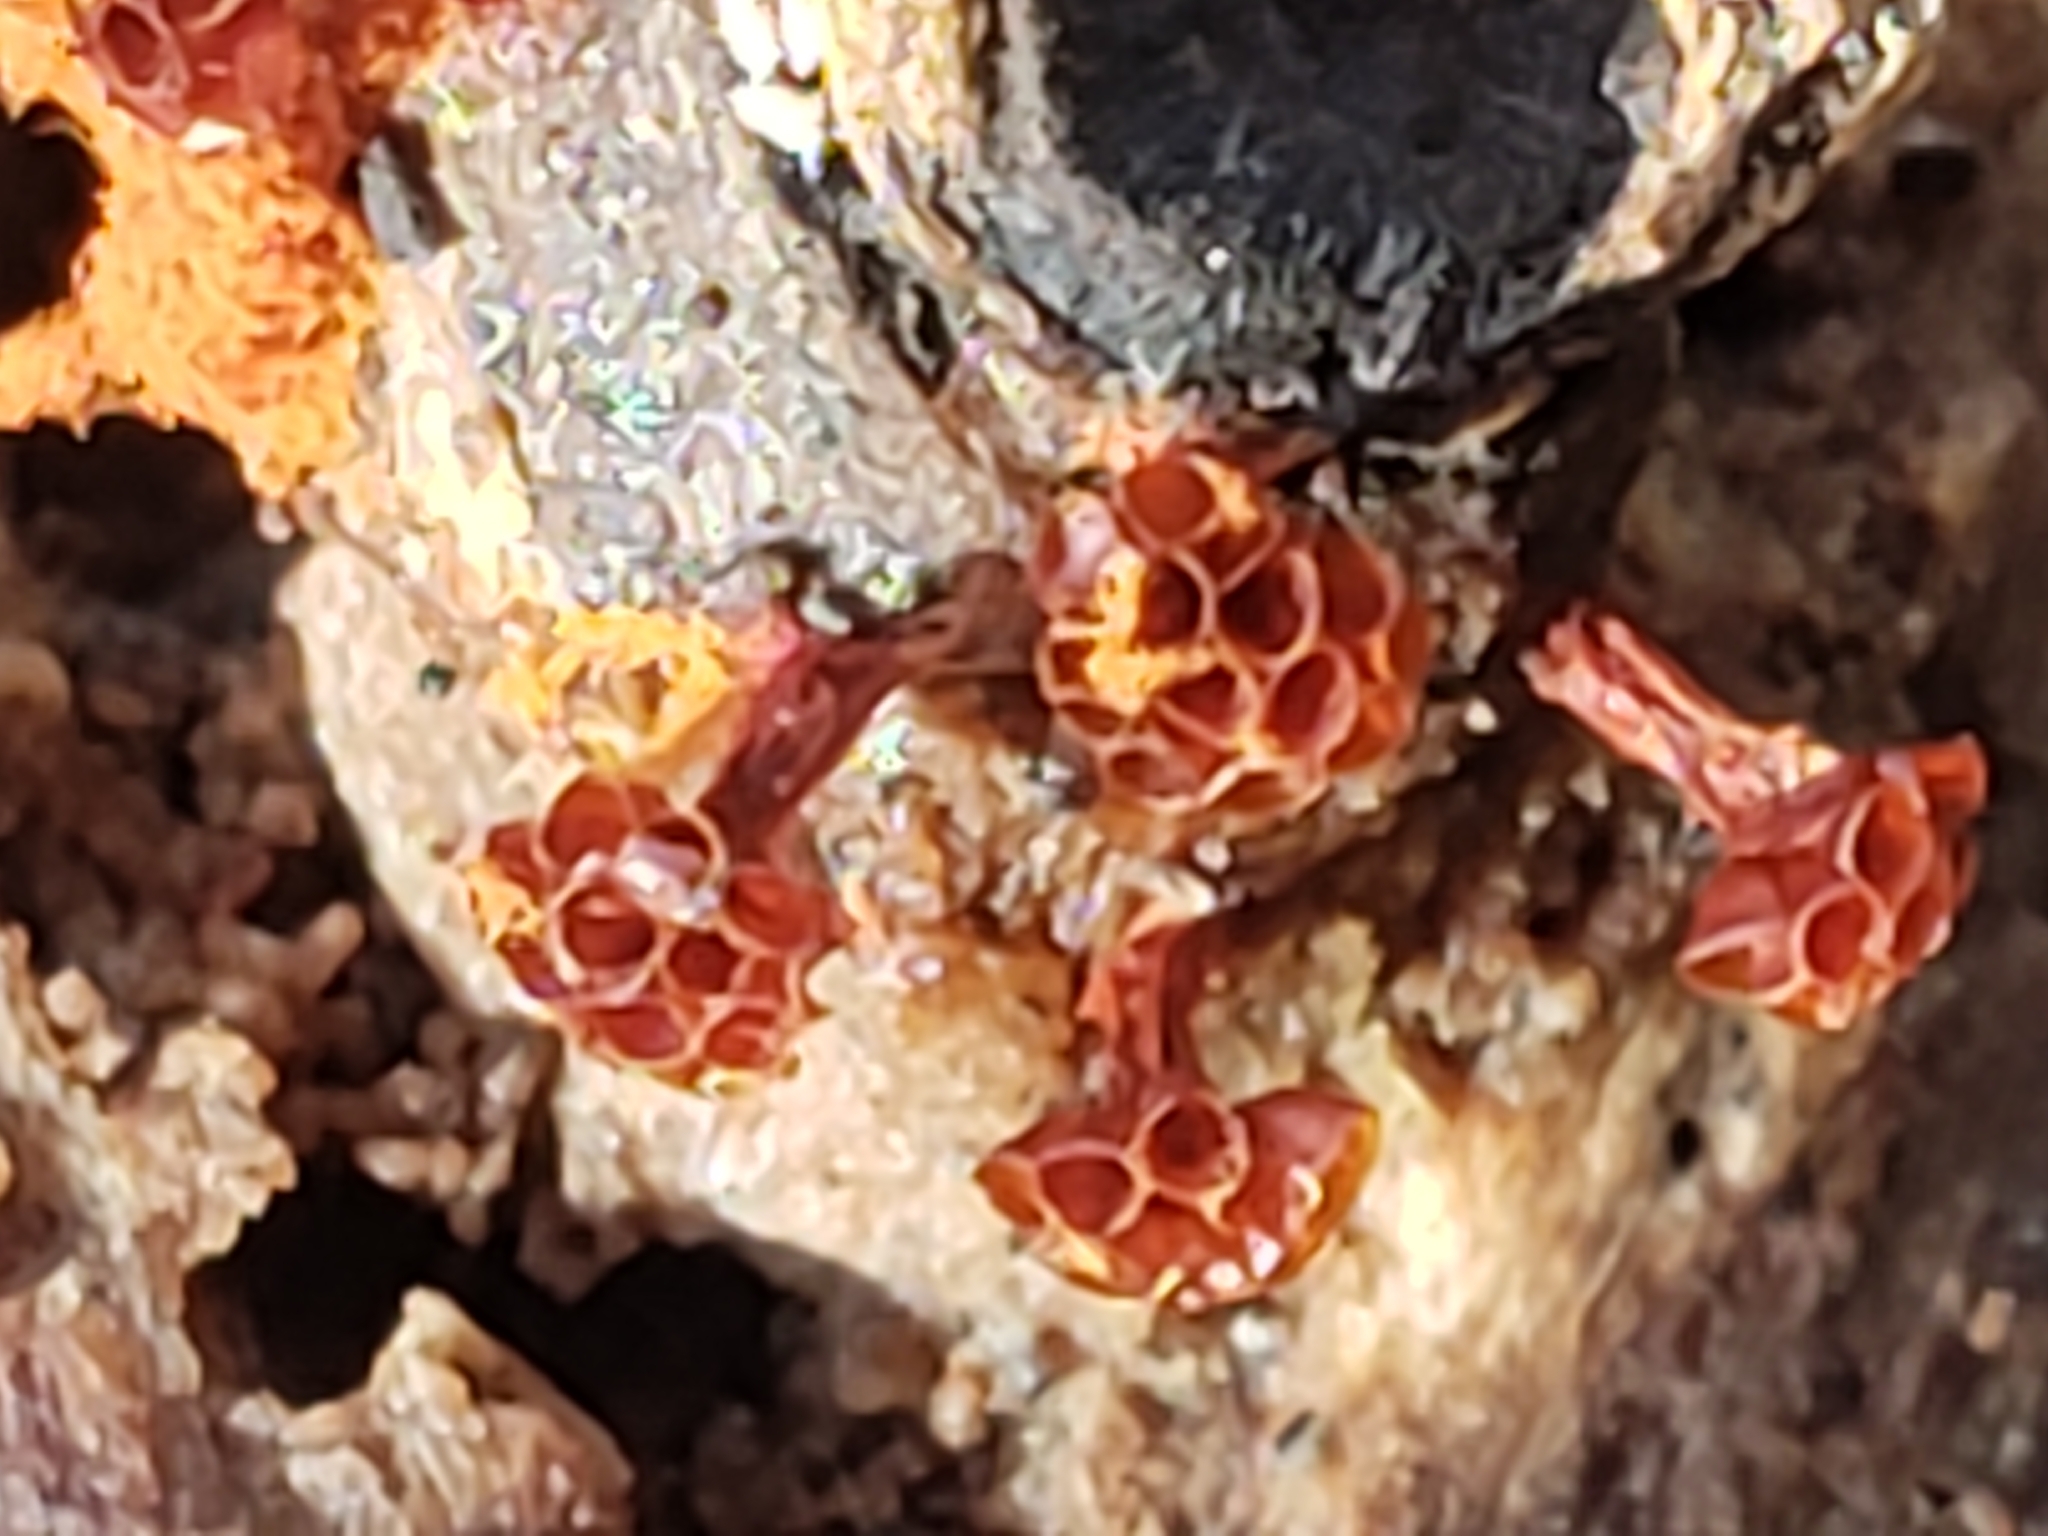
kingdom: Protozoa
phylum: Mycetozoa
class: Myxomycetes
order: Trichiales
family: Trichiaceae
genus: Metatrichia
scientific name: Metatrichia vesparia
